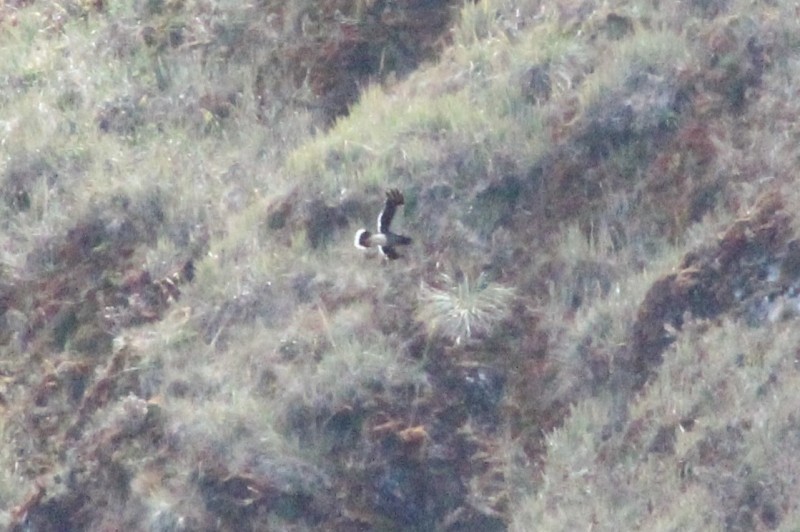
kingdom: Animalia
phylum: Chordata
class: Aves
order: Falconiformes
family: Falconidae
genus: Daptrius
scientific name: Daptrius
